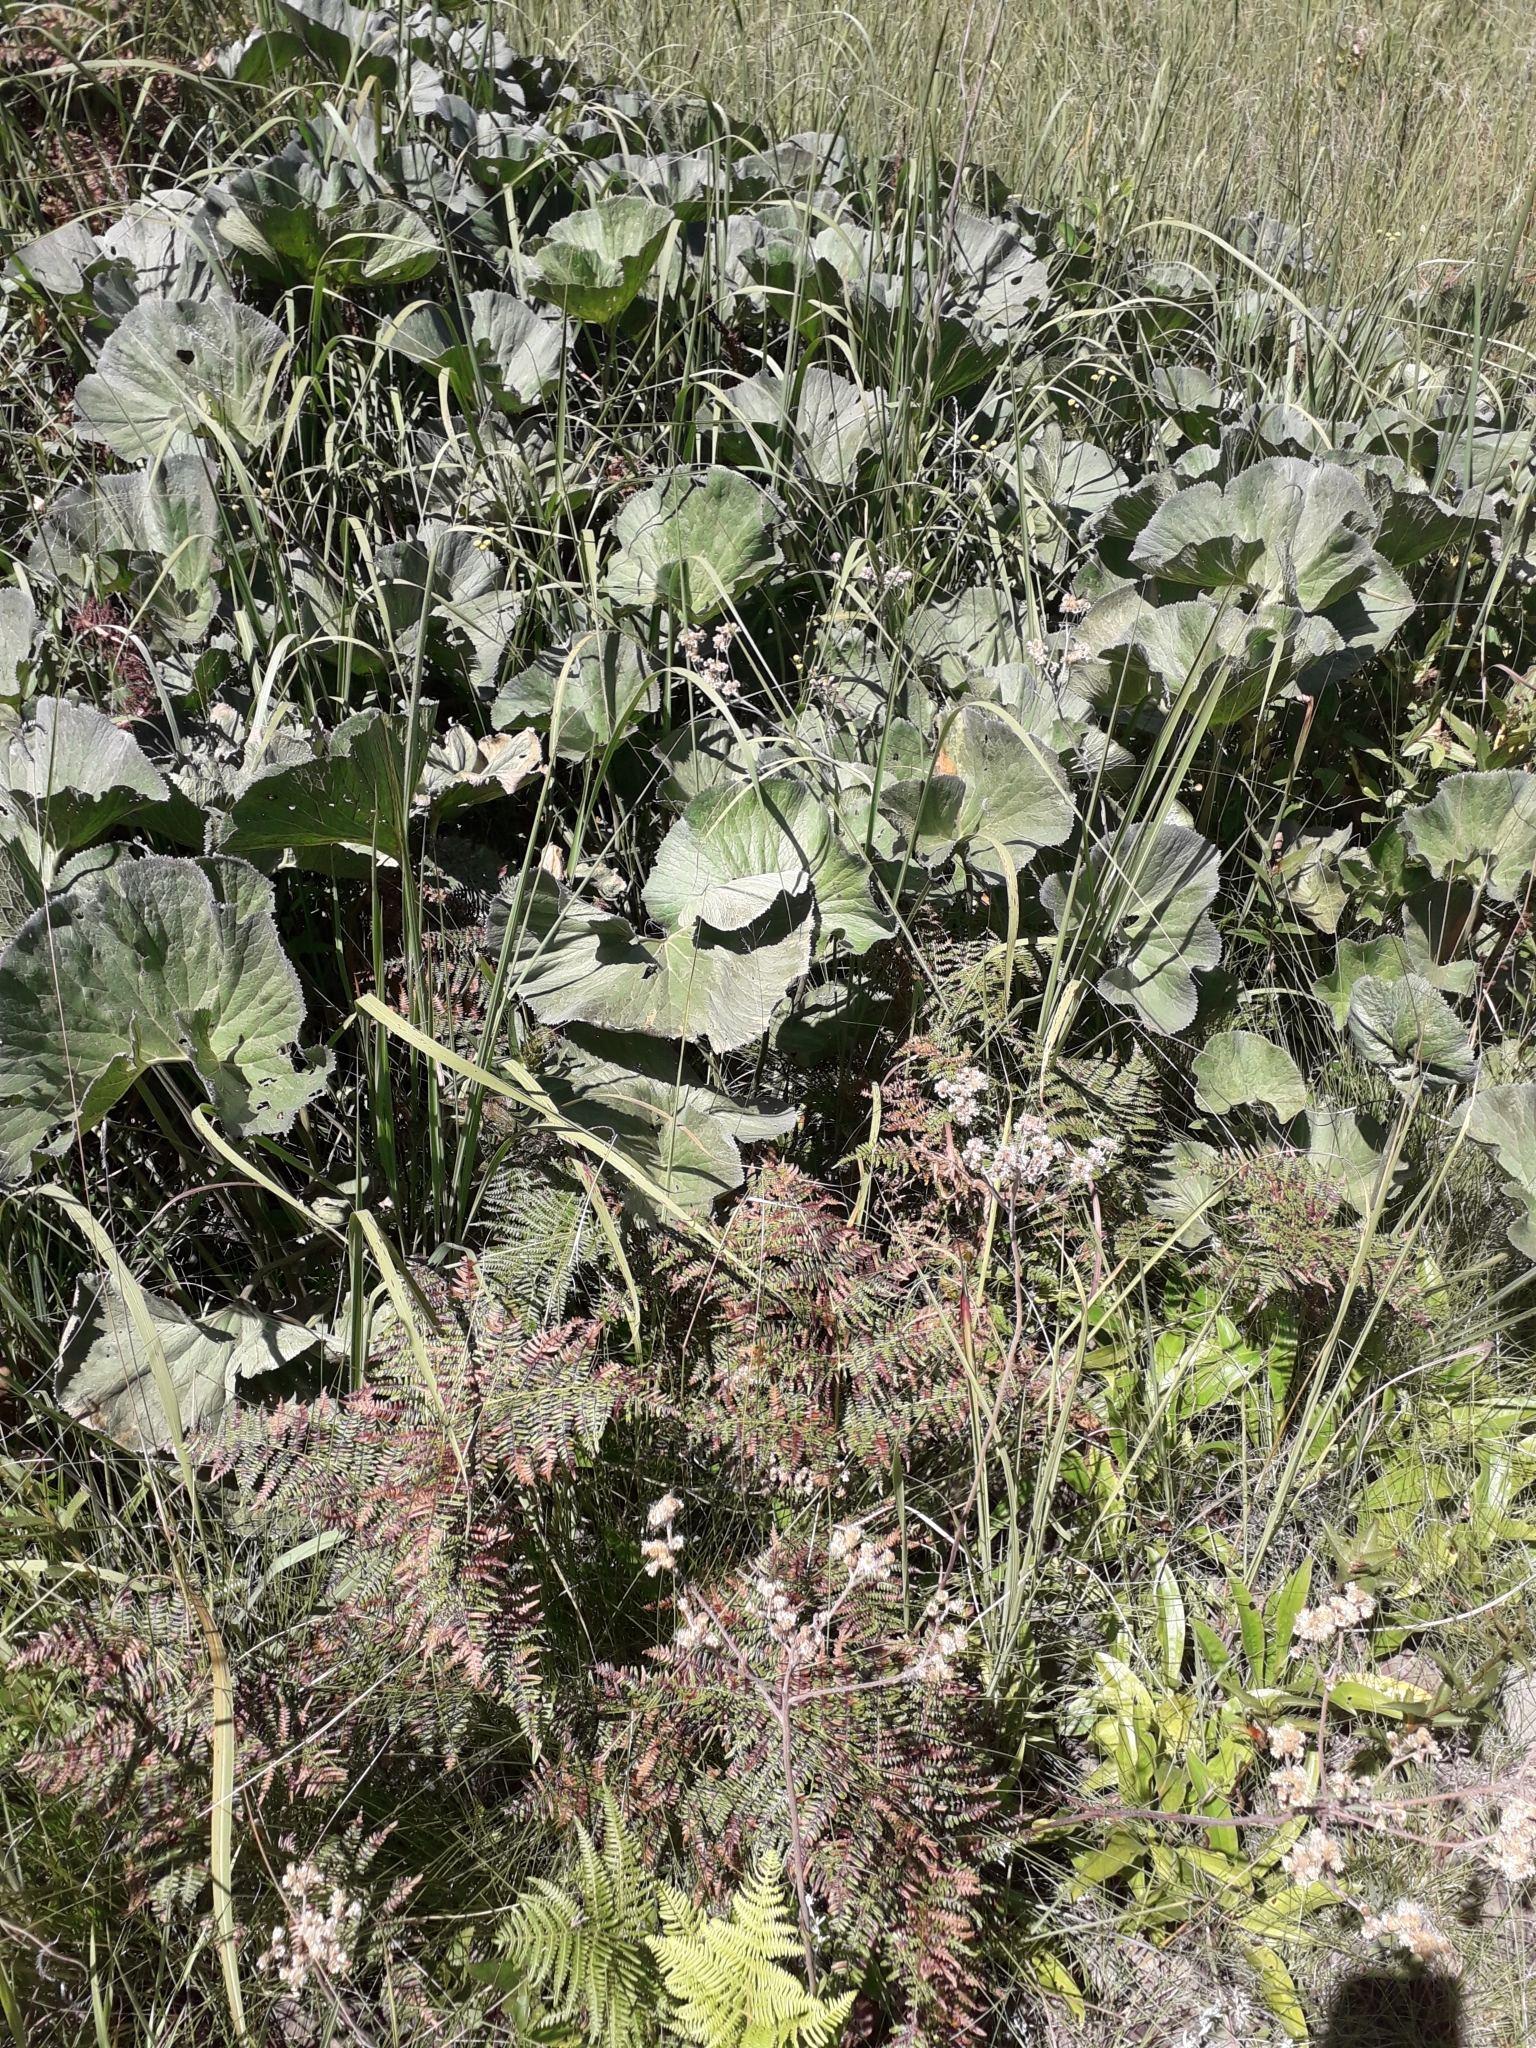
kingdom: Plantae
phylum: Tracheophyta
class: Magnoliopsida
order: Gunnerales
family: Gunneraceae
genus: Gunnera
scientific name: Gunnera perpensa
